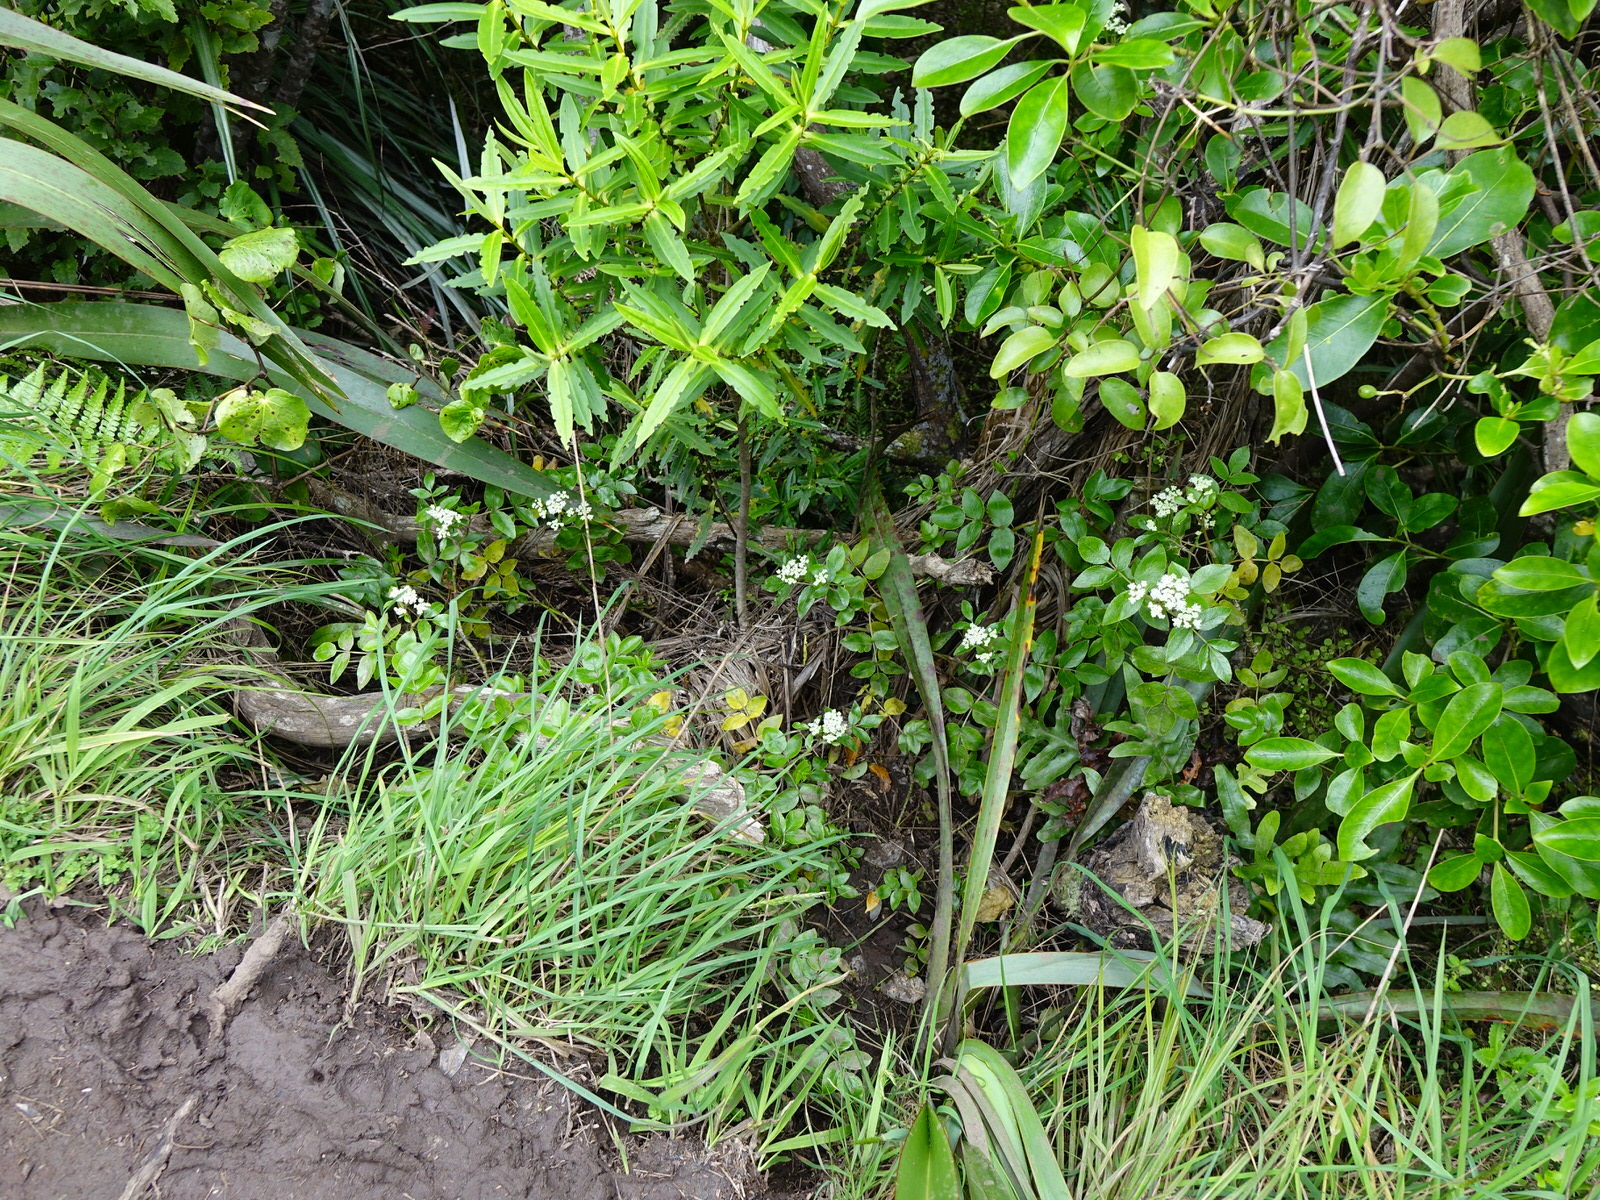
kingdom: Plantae
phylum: Tracheophyta
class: Magnoliopsida
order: Apiales
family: Apiaceae
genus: Scandia
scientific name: Scandia rosifolia
